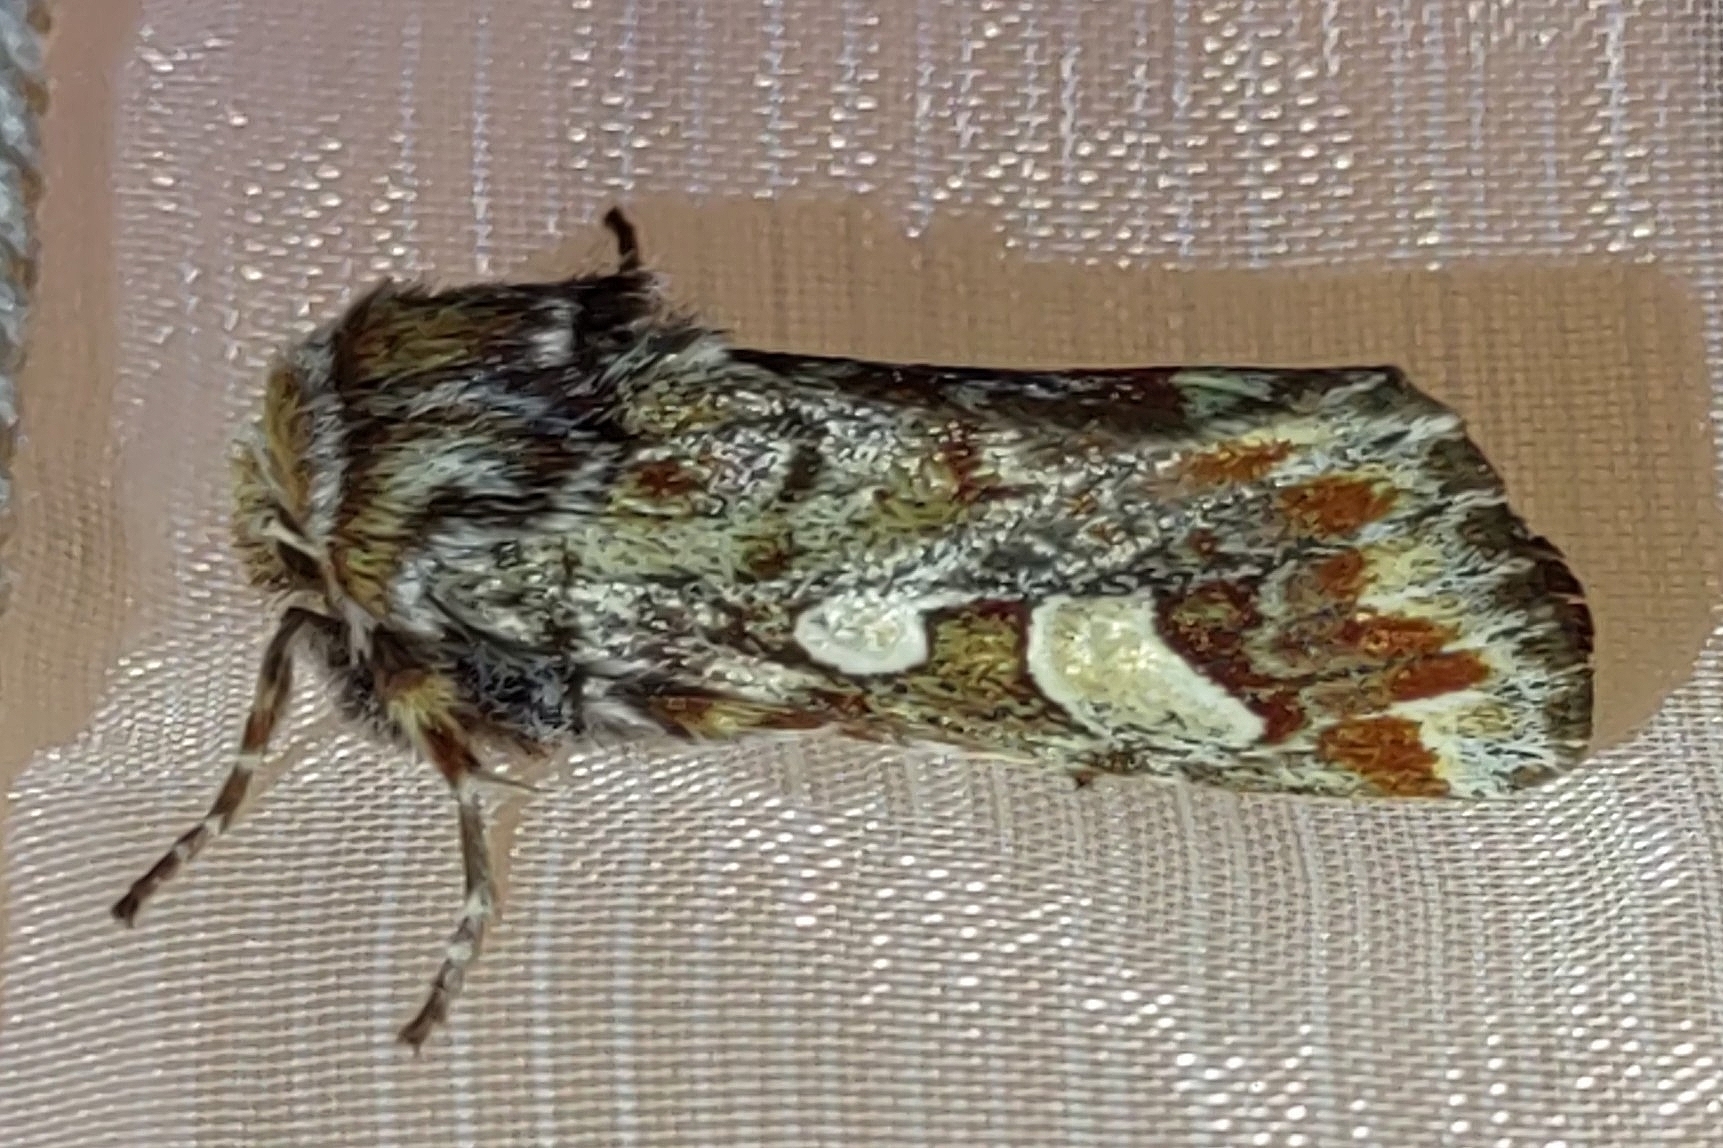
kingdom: Animalia
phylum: Arthropoda
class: Insecta
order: Lepidoptera
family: Noctuidae
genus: Panolis
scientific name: Panolis flammea
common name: Pine beauty
